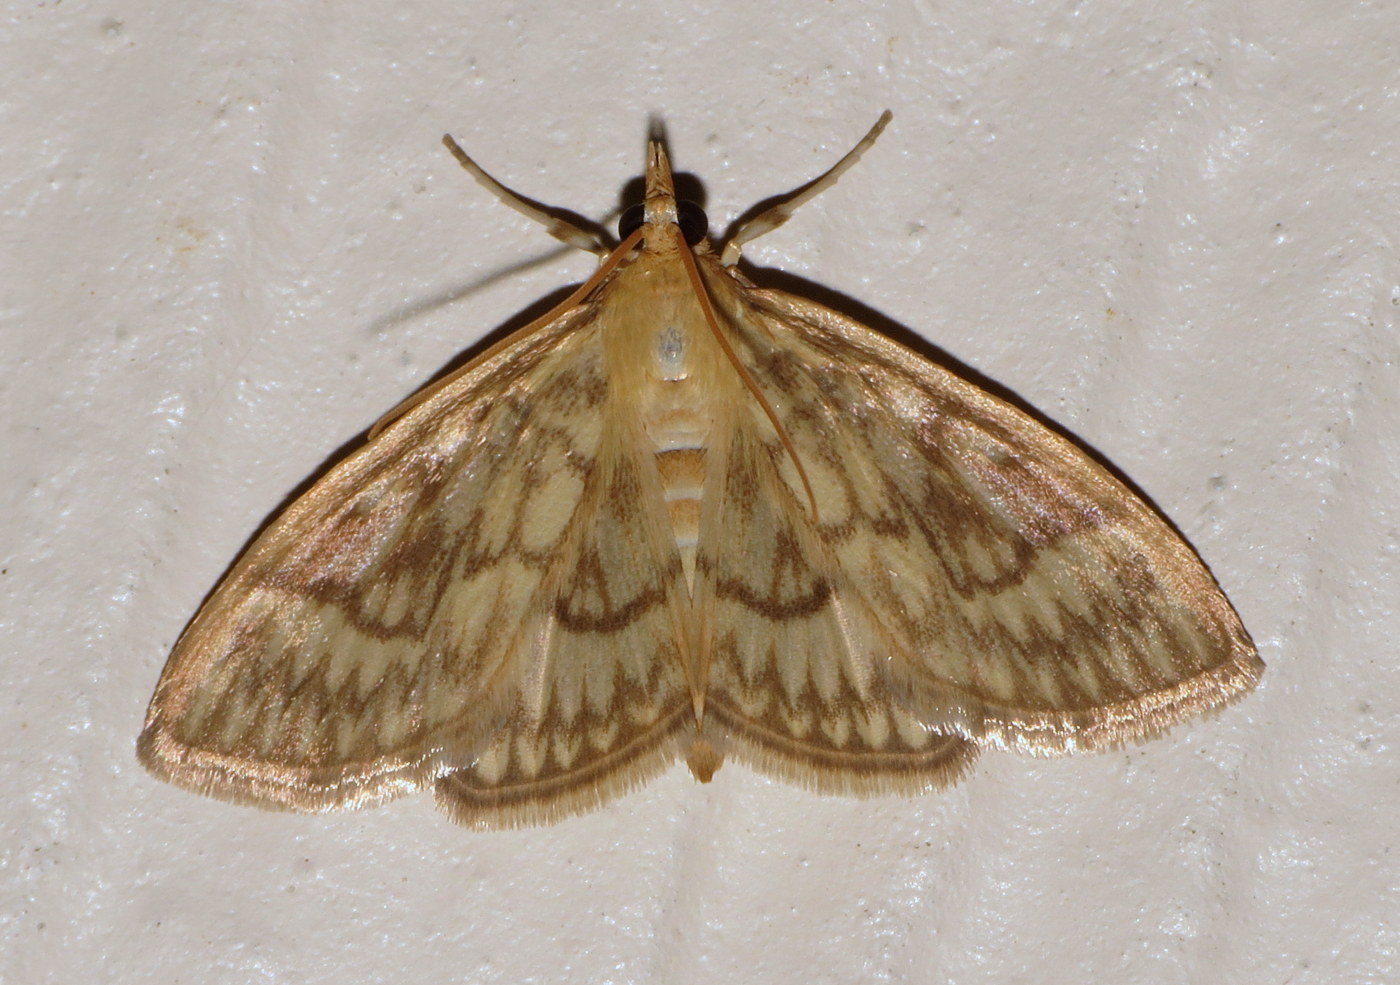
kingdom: Animalia
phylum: Arthropoda
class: Insecta
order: Lepidoptera
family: Crambidae
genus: Crocidophora
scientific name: Crocidophora serratissimalis
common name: Saw-toothed crocidophora moth
